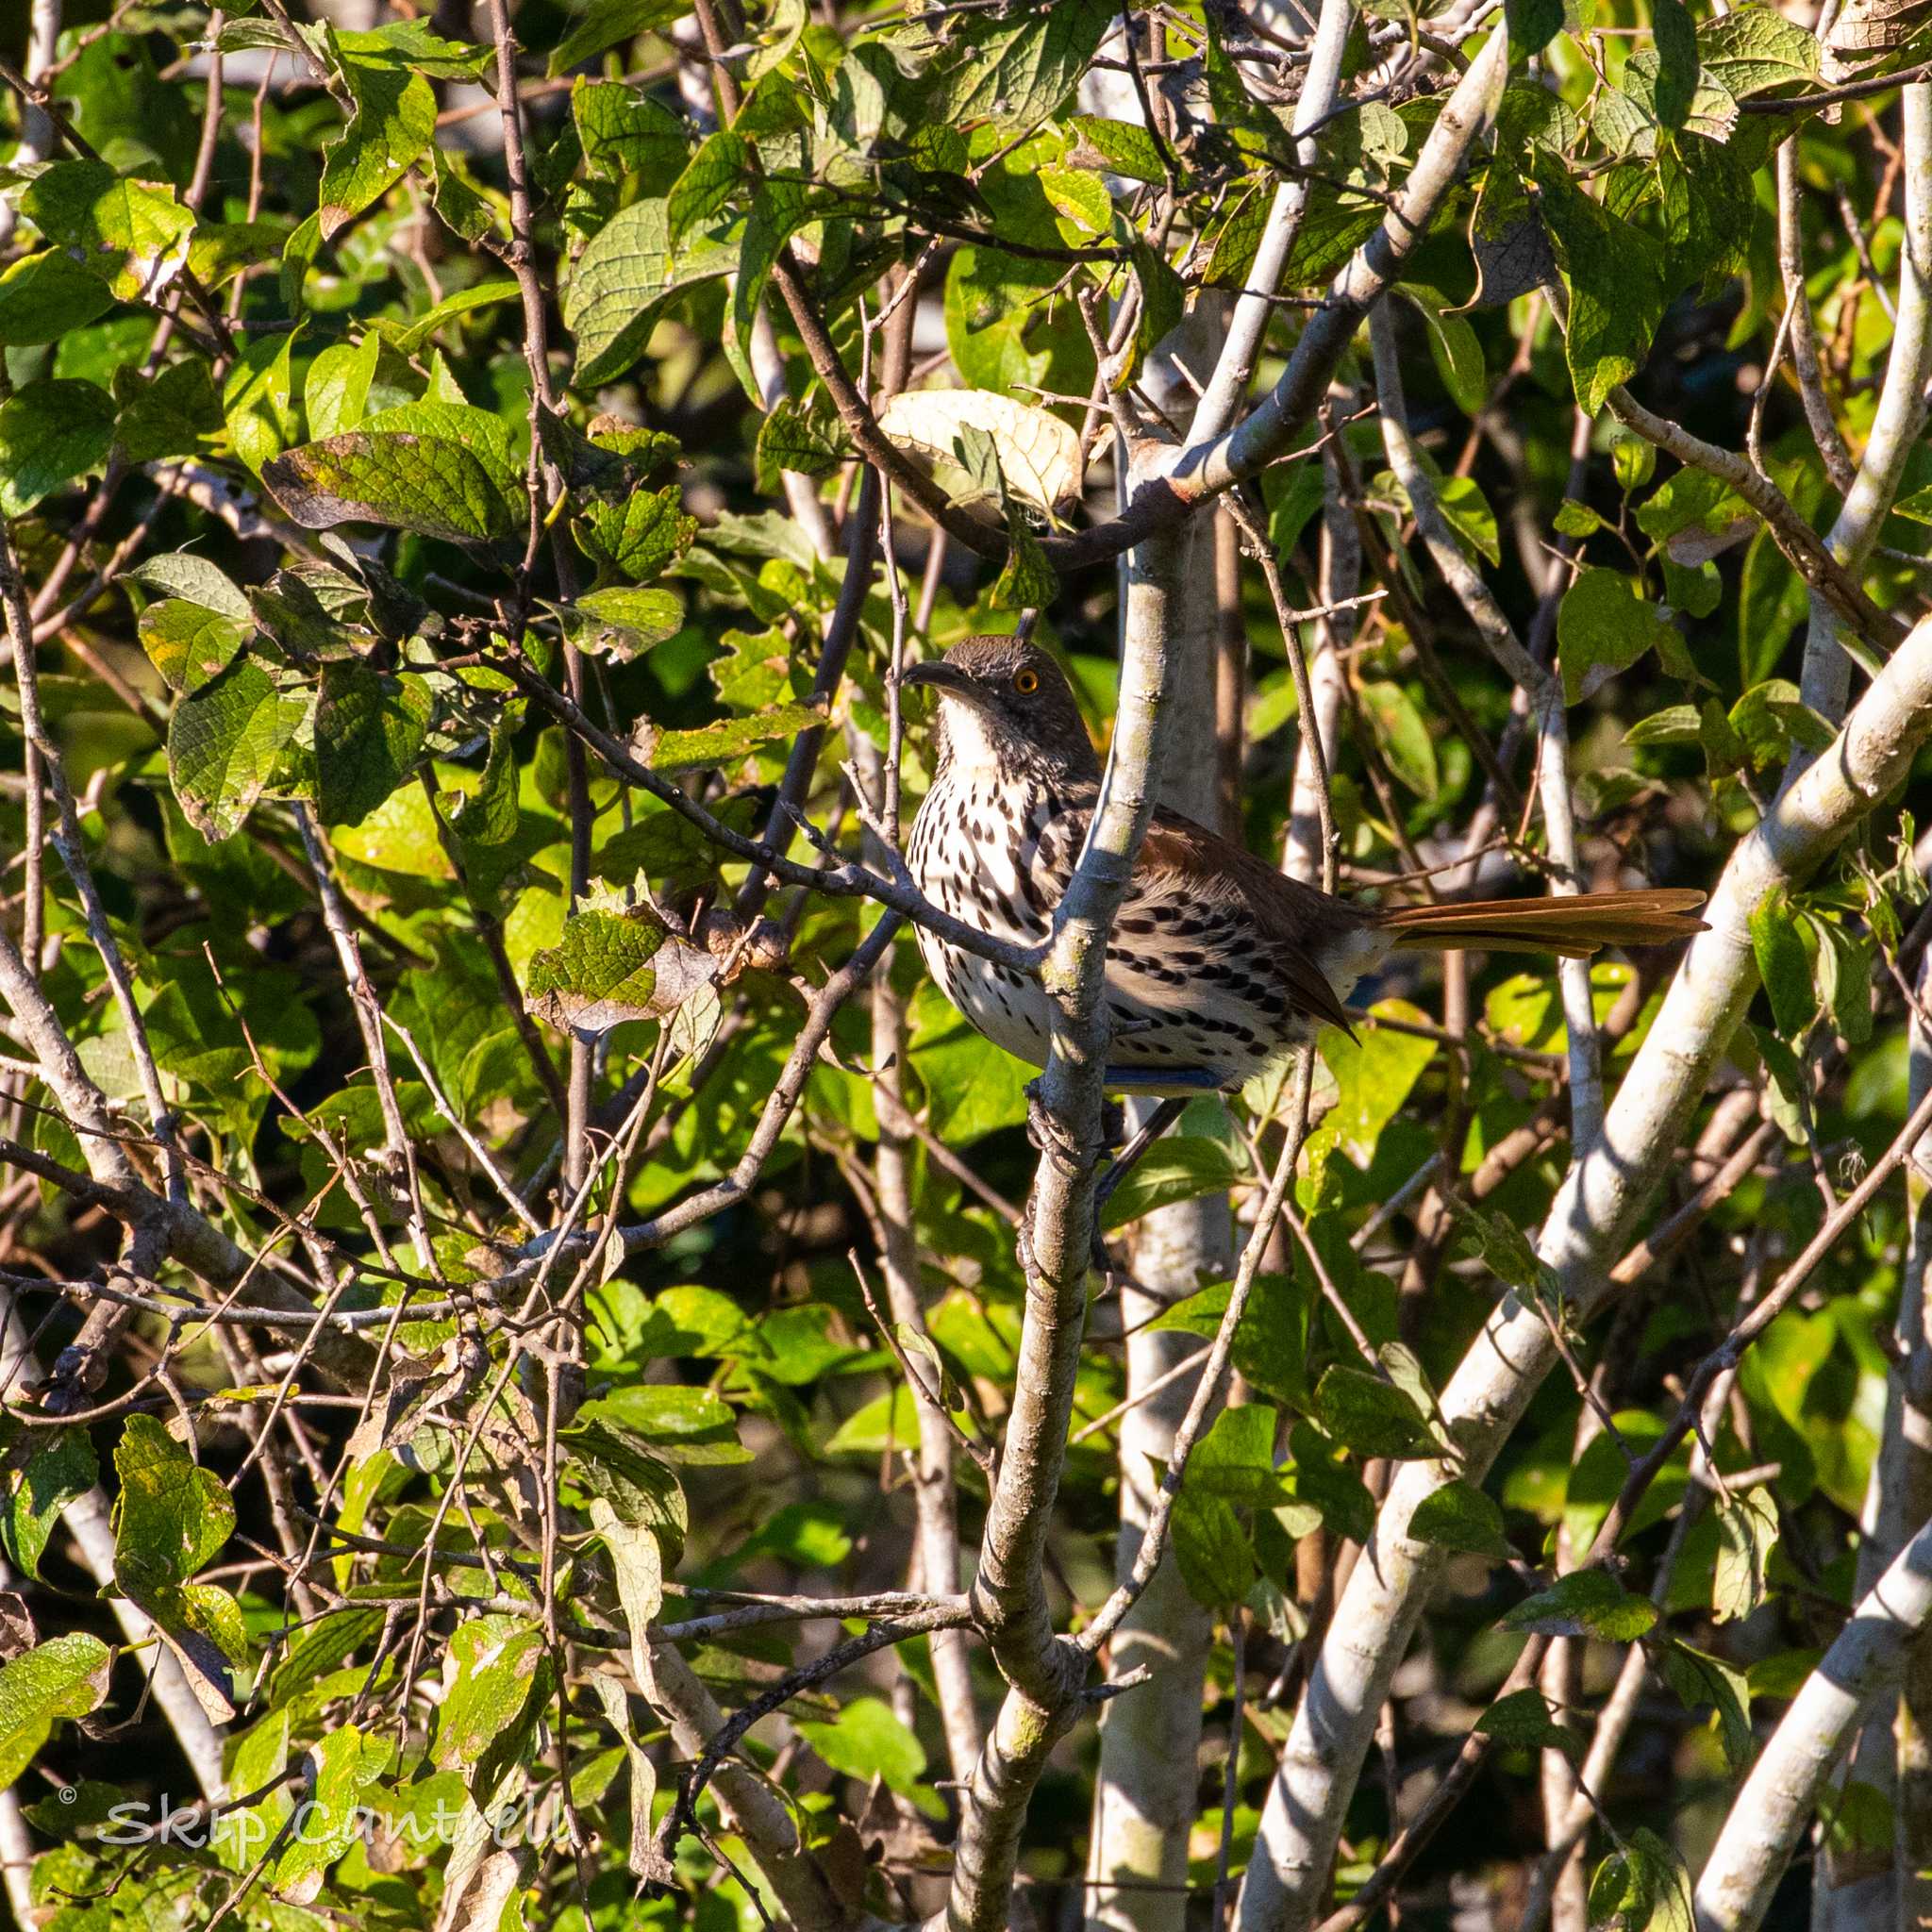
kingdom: Animalia
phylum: Chordata
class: Aves
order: Passeriformes
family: Mimidae
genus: Toxostoma
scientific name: Toxostoma longirostre
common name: Long-billed thrasher
